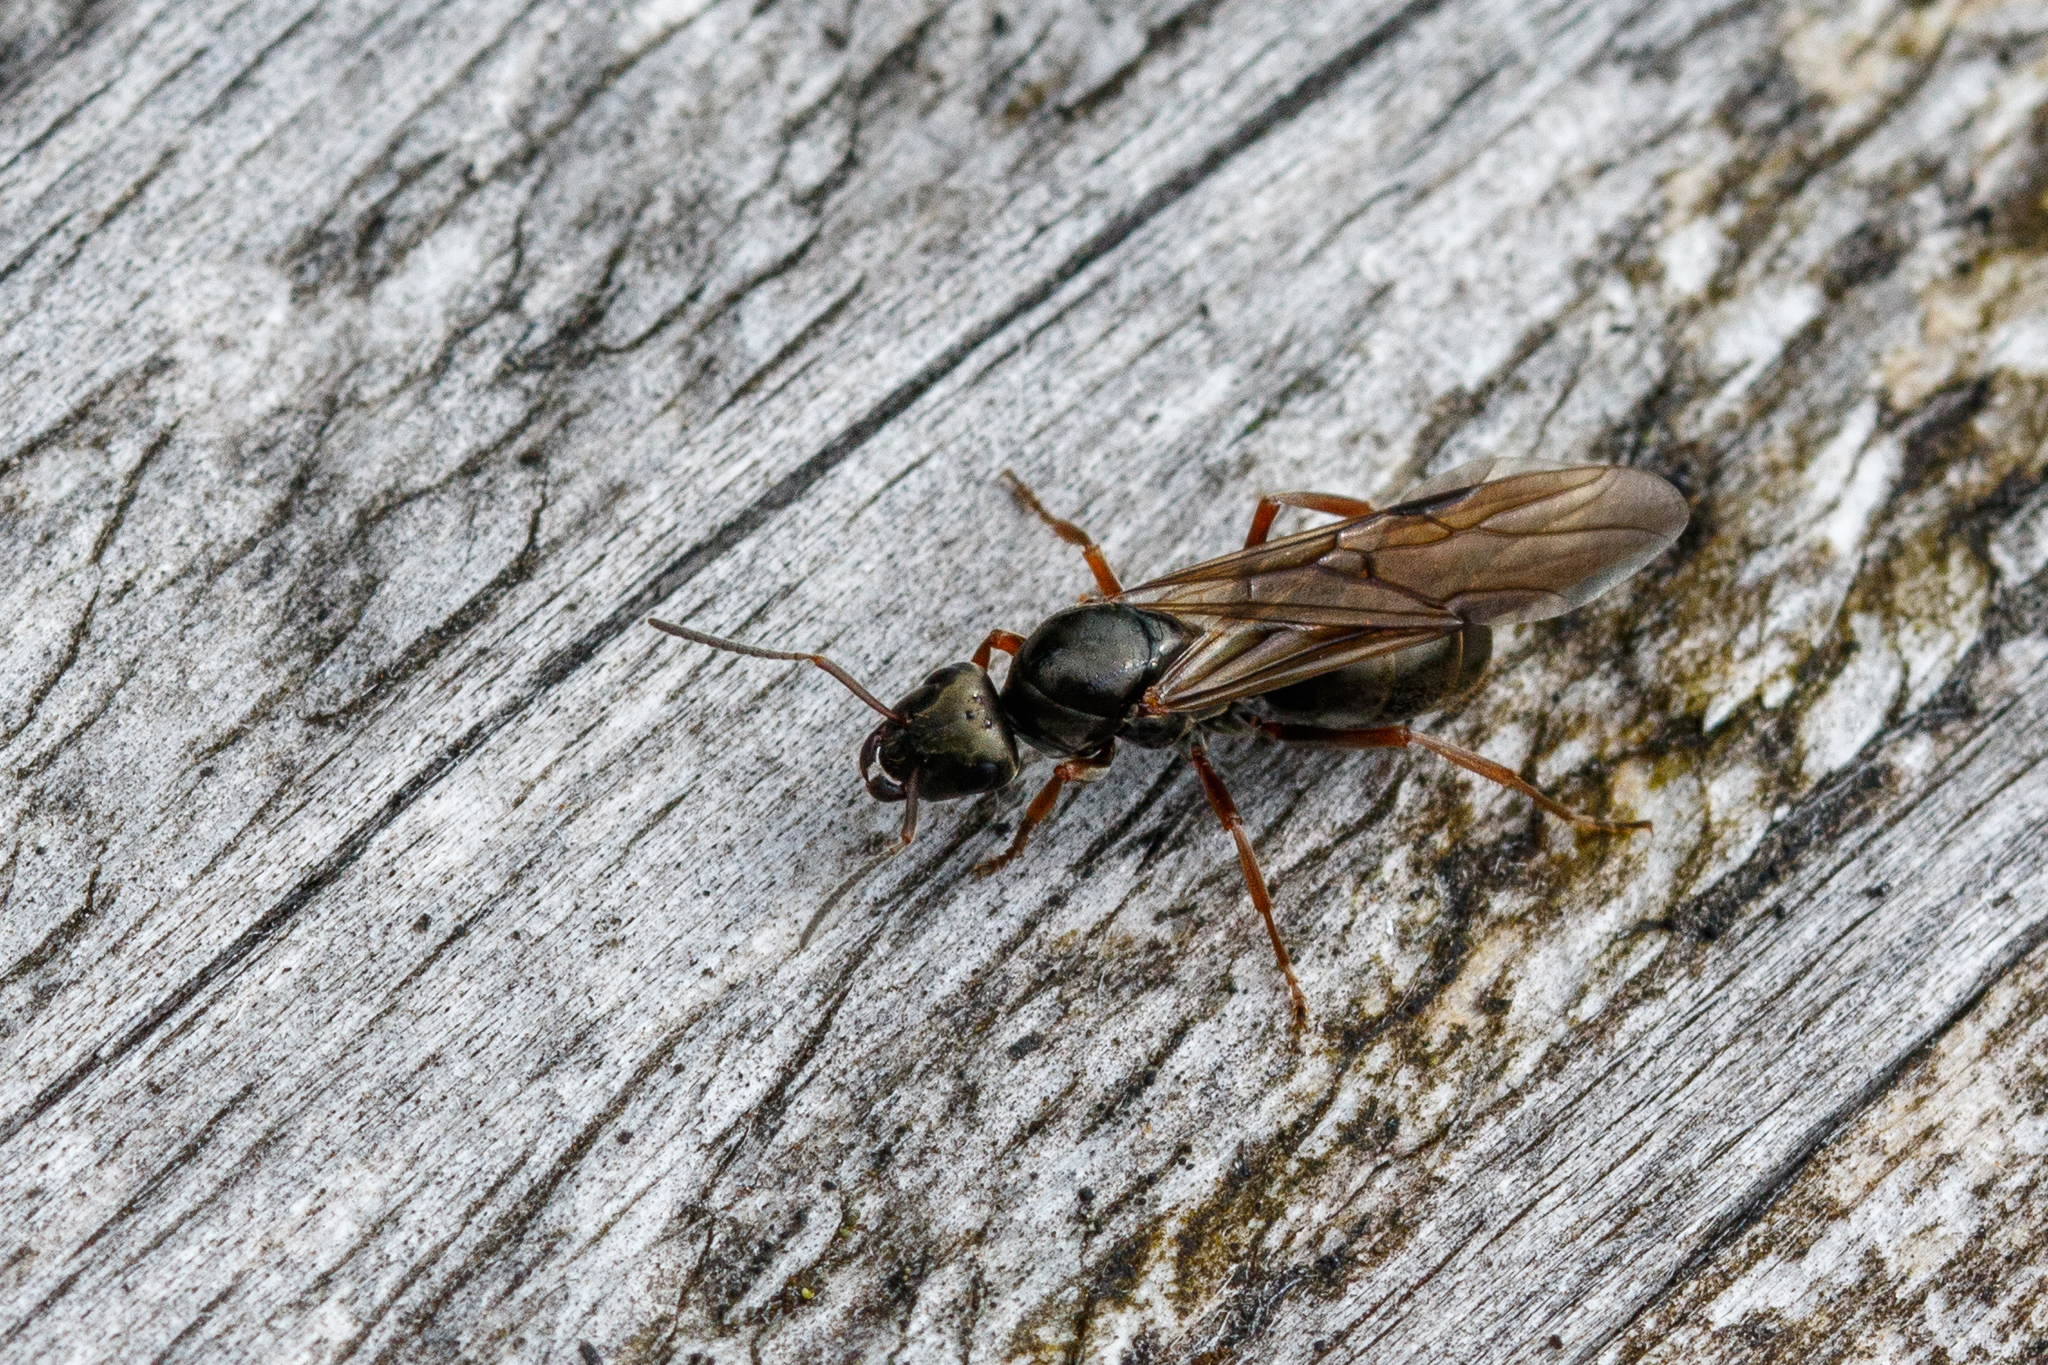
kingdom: Animalia
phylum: Arthropoda
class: Insecta
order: Hymenoptera
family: Formicidae
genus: Formica
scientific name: Formica lemani
